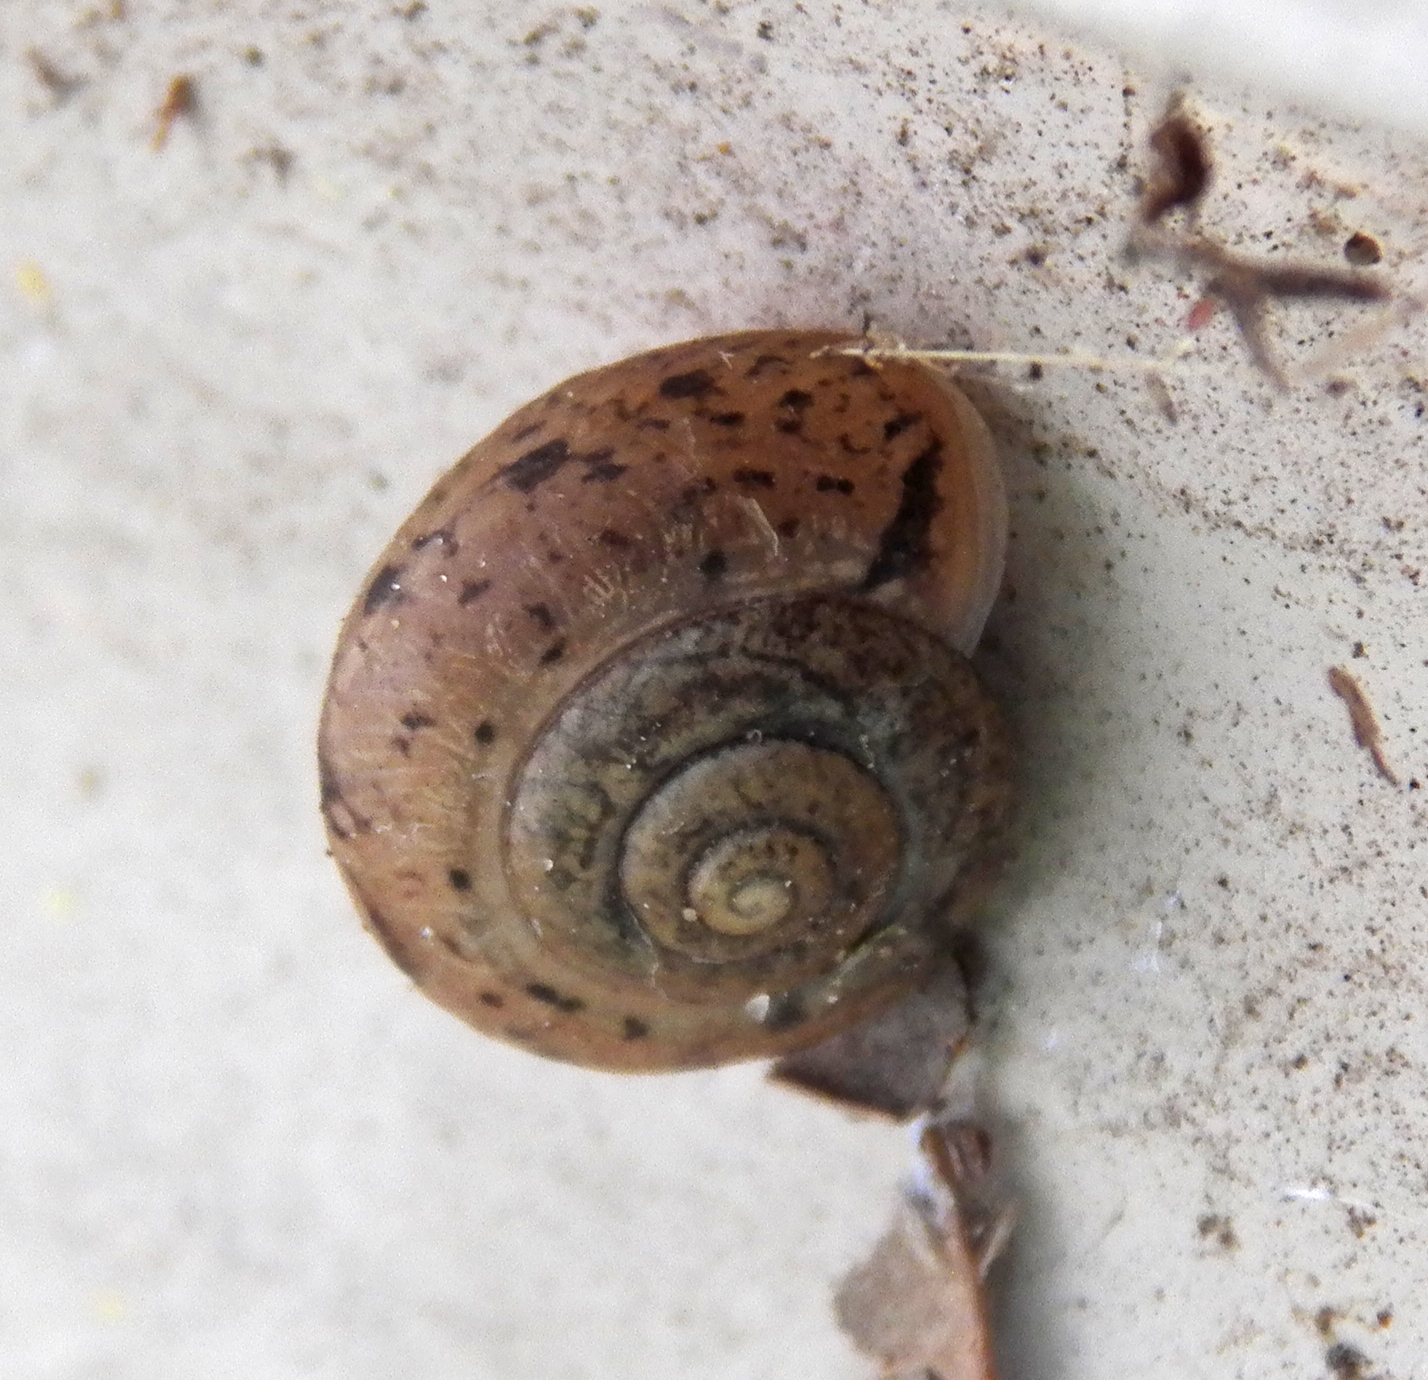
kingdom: Animalia
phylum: Mollusca
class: Gastropoda
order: Stylommatophora
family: Camaenidae
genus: Bradybaena
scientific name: Bradybaena similaris
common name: Asian trampsnail
